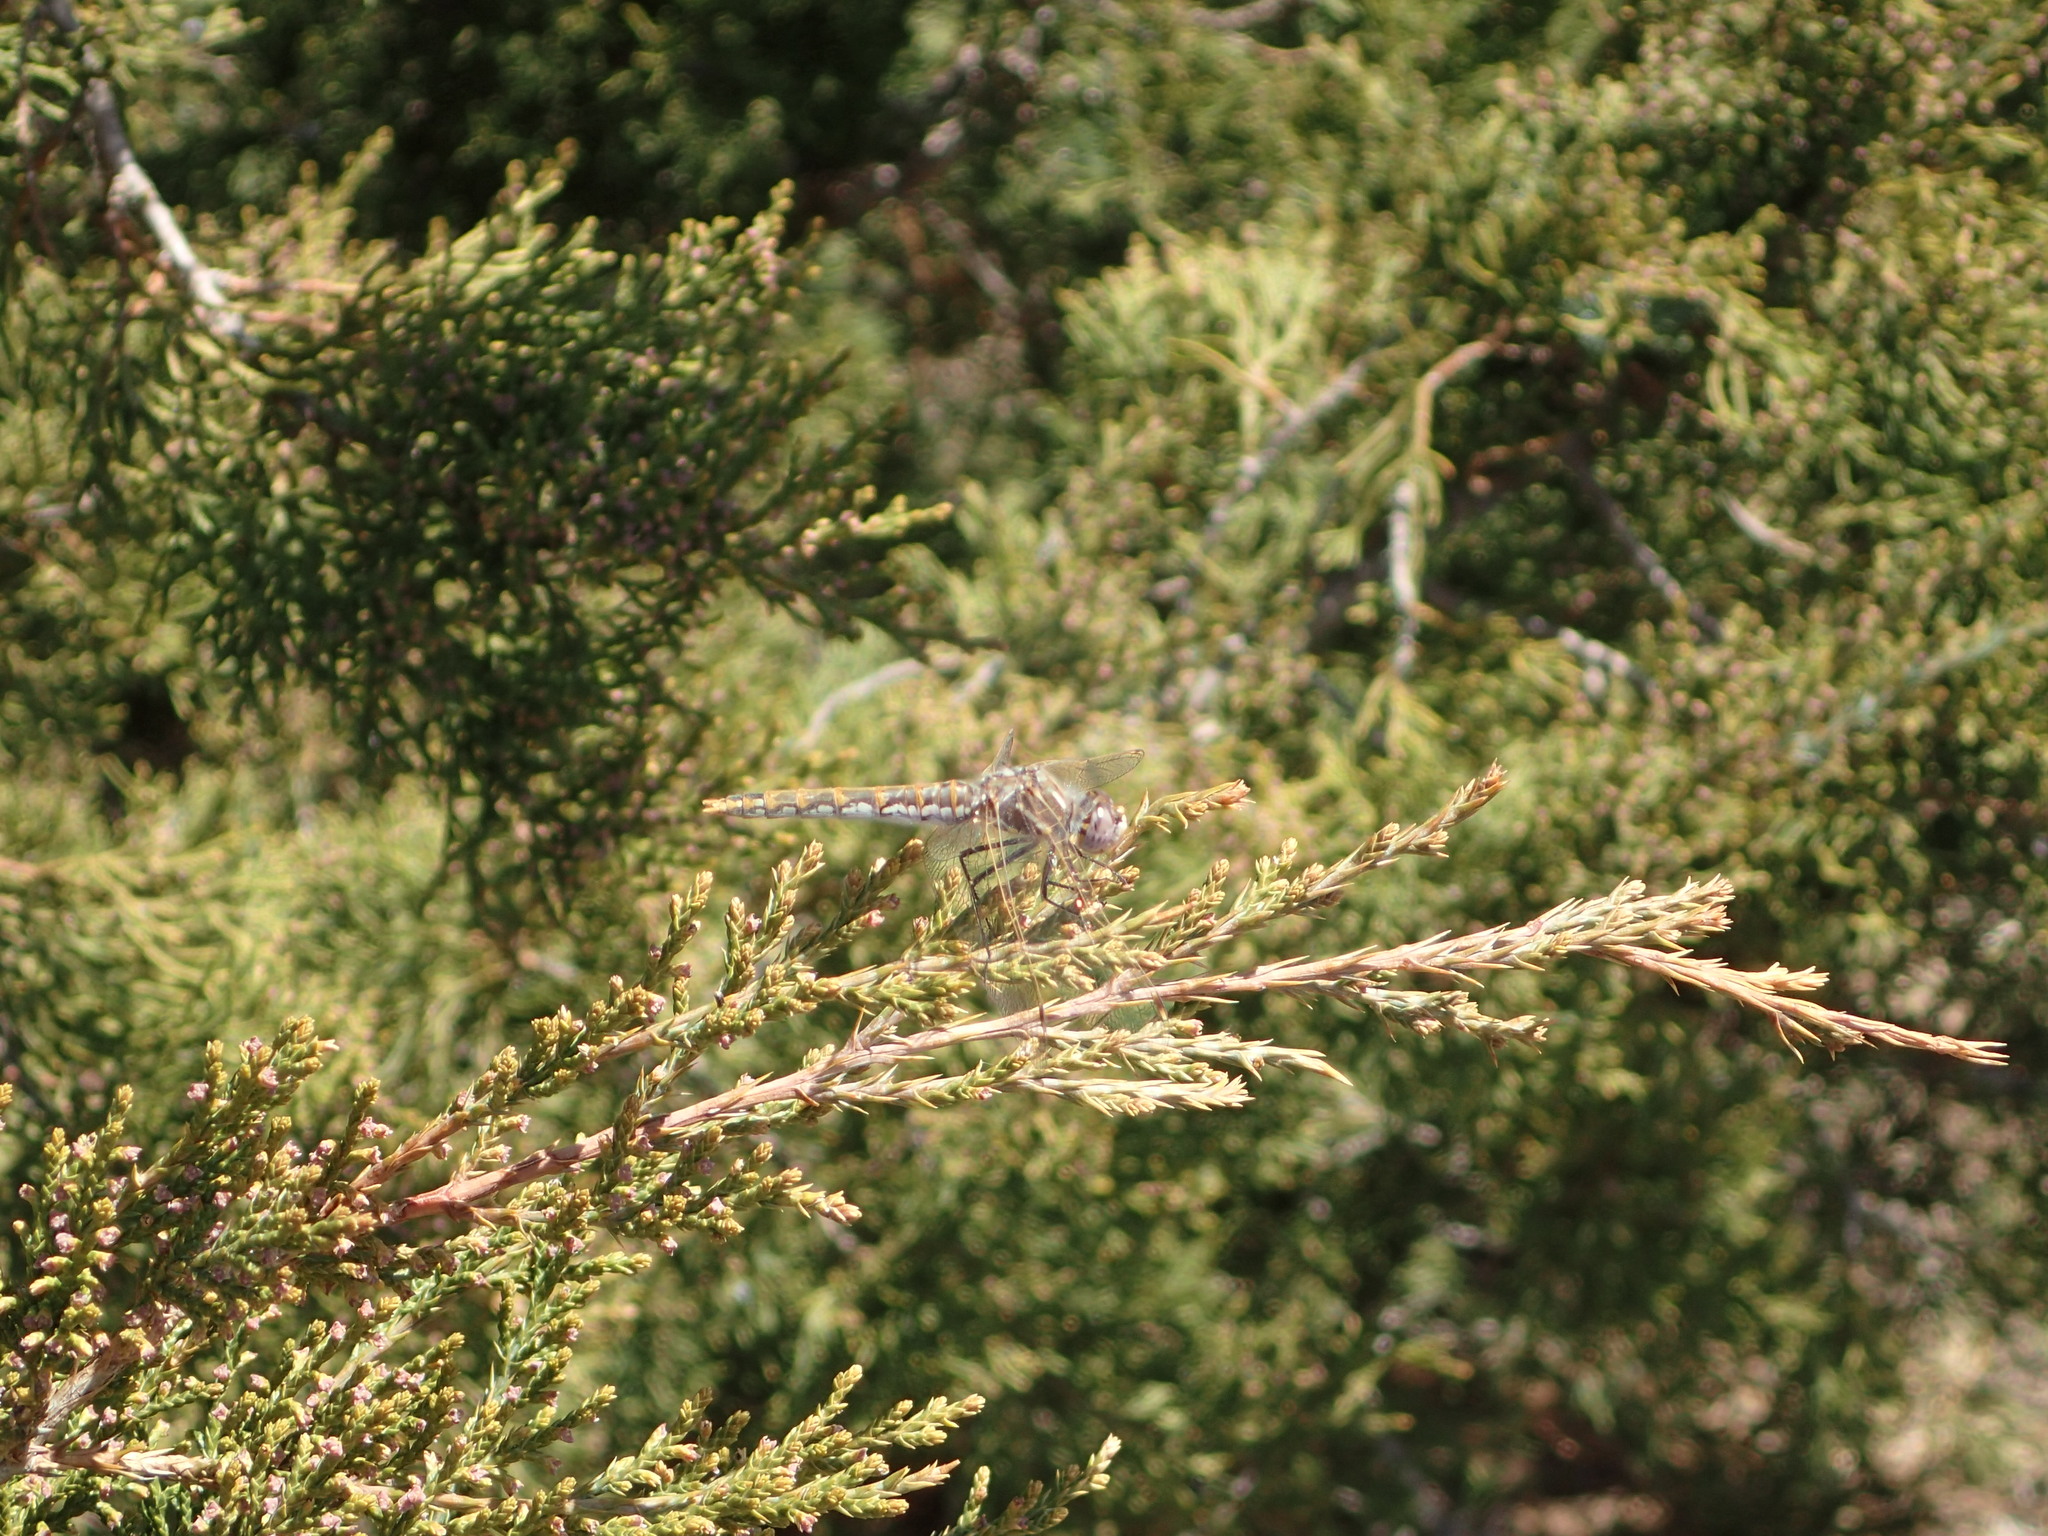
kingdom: Animalia
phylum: Arthropoda
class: Insecta
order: Odonata
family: Libellulidae
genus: Sympetrum
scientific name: Sympetrum corruptum
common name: Variegated meadowhawk
